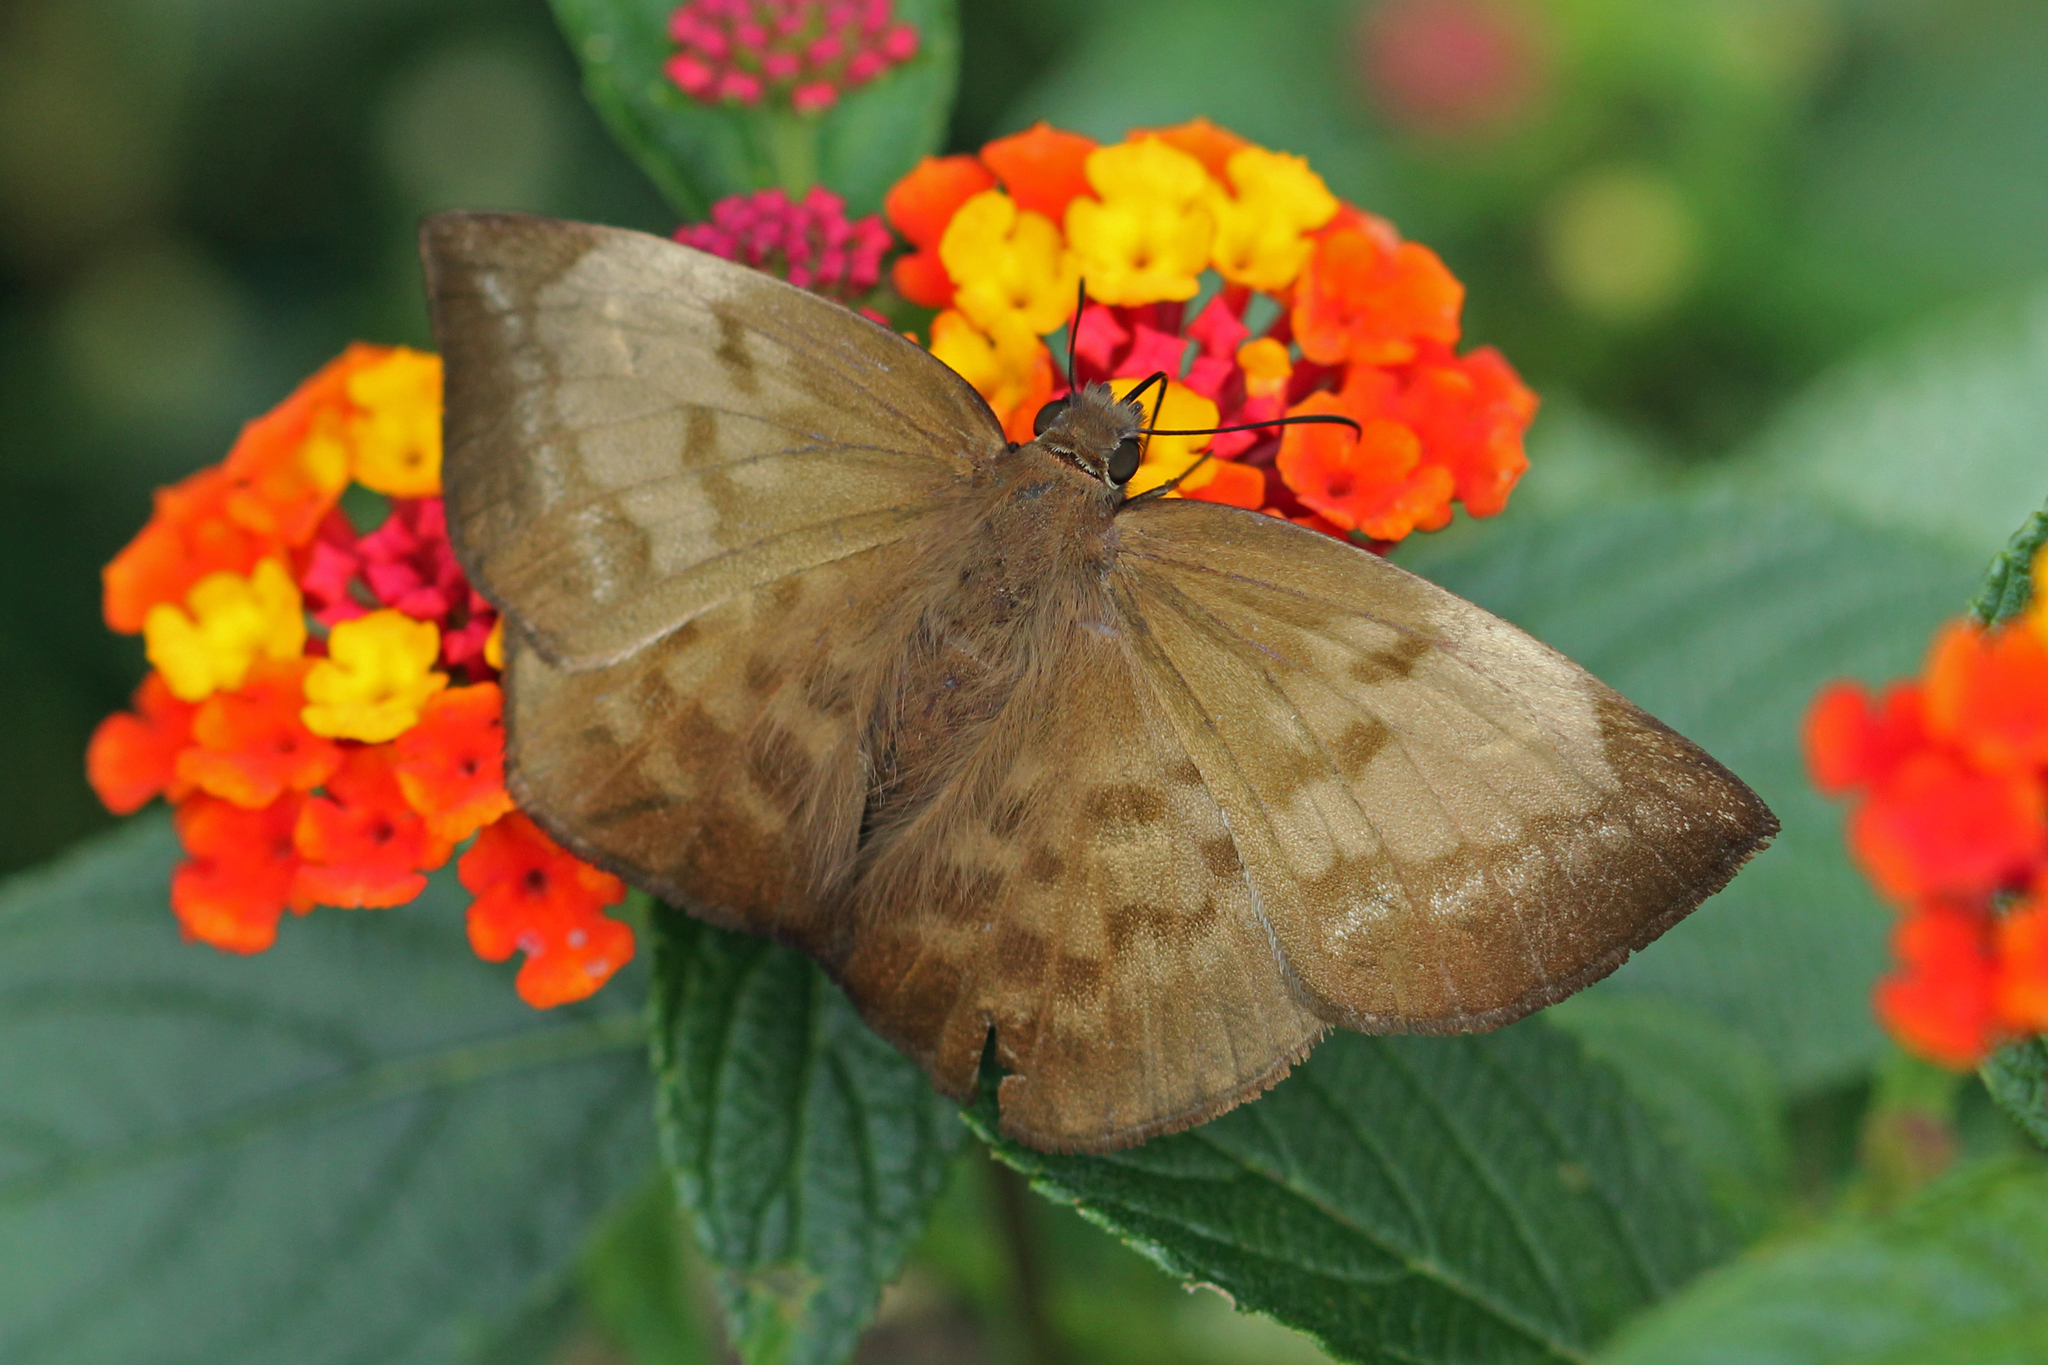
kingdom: Animalia
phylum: Arthropoda
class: Insecta
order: Lepidoptera
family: Hesperiidae
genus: Achlyodes
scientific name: Achlyodes pallida
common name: Pale sicklewing
